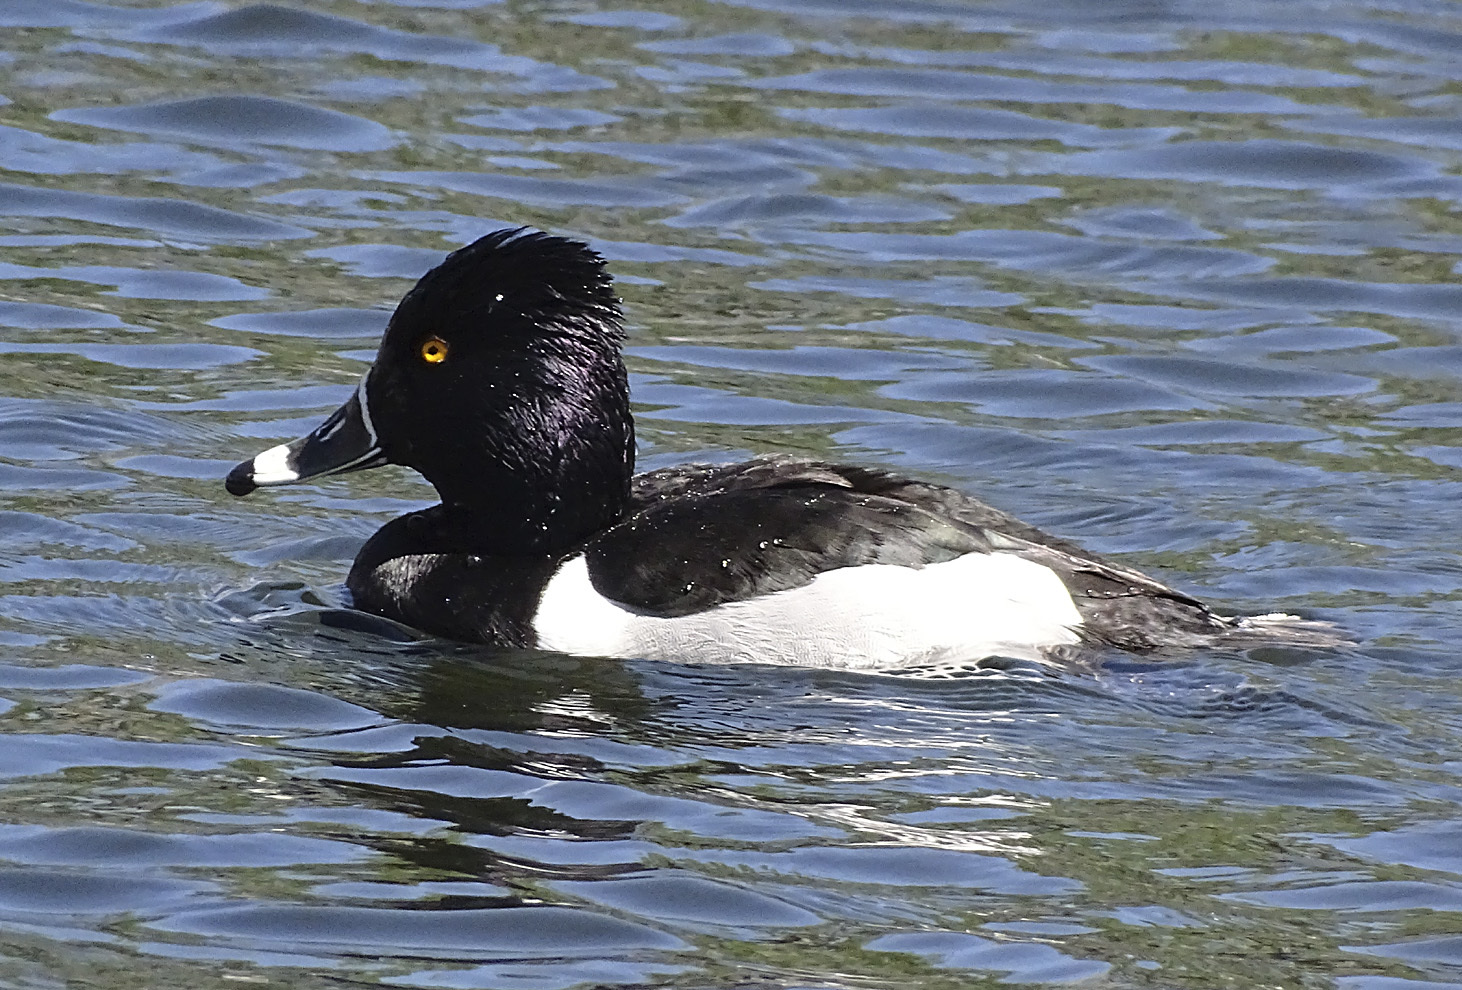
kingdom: Animalia
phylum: Chordata
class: Aves
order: Anseriformes
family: Anatidae
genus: Aythya
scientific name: Aythya collaris
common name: Ring-necked duck
